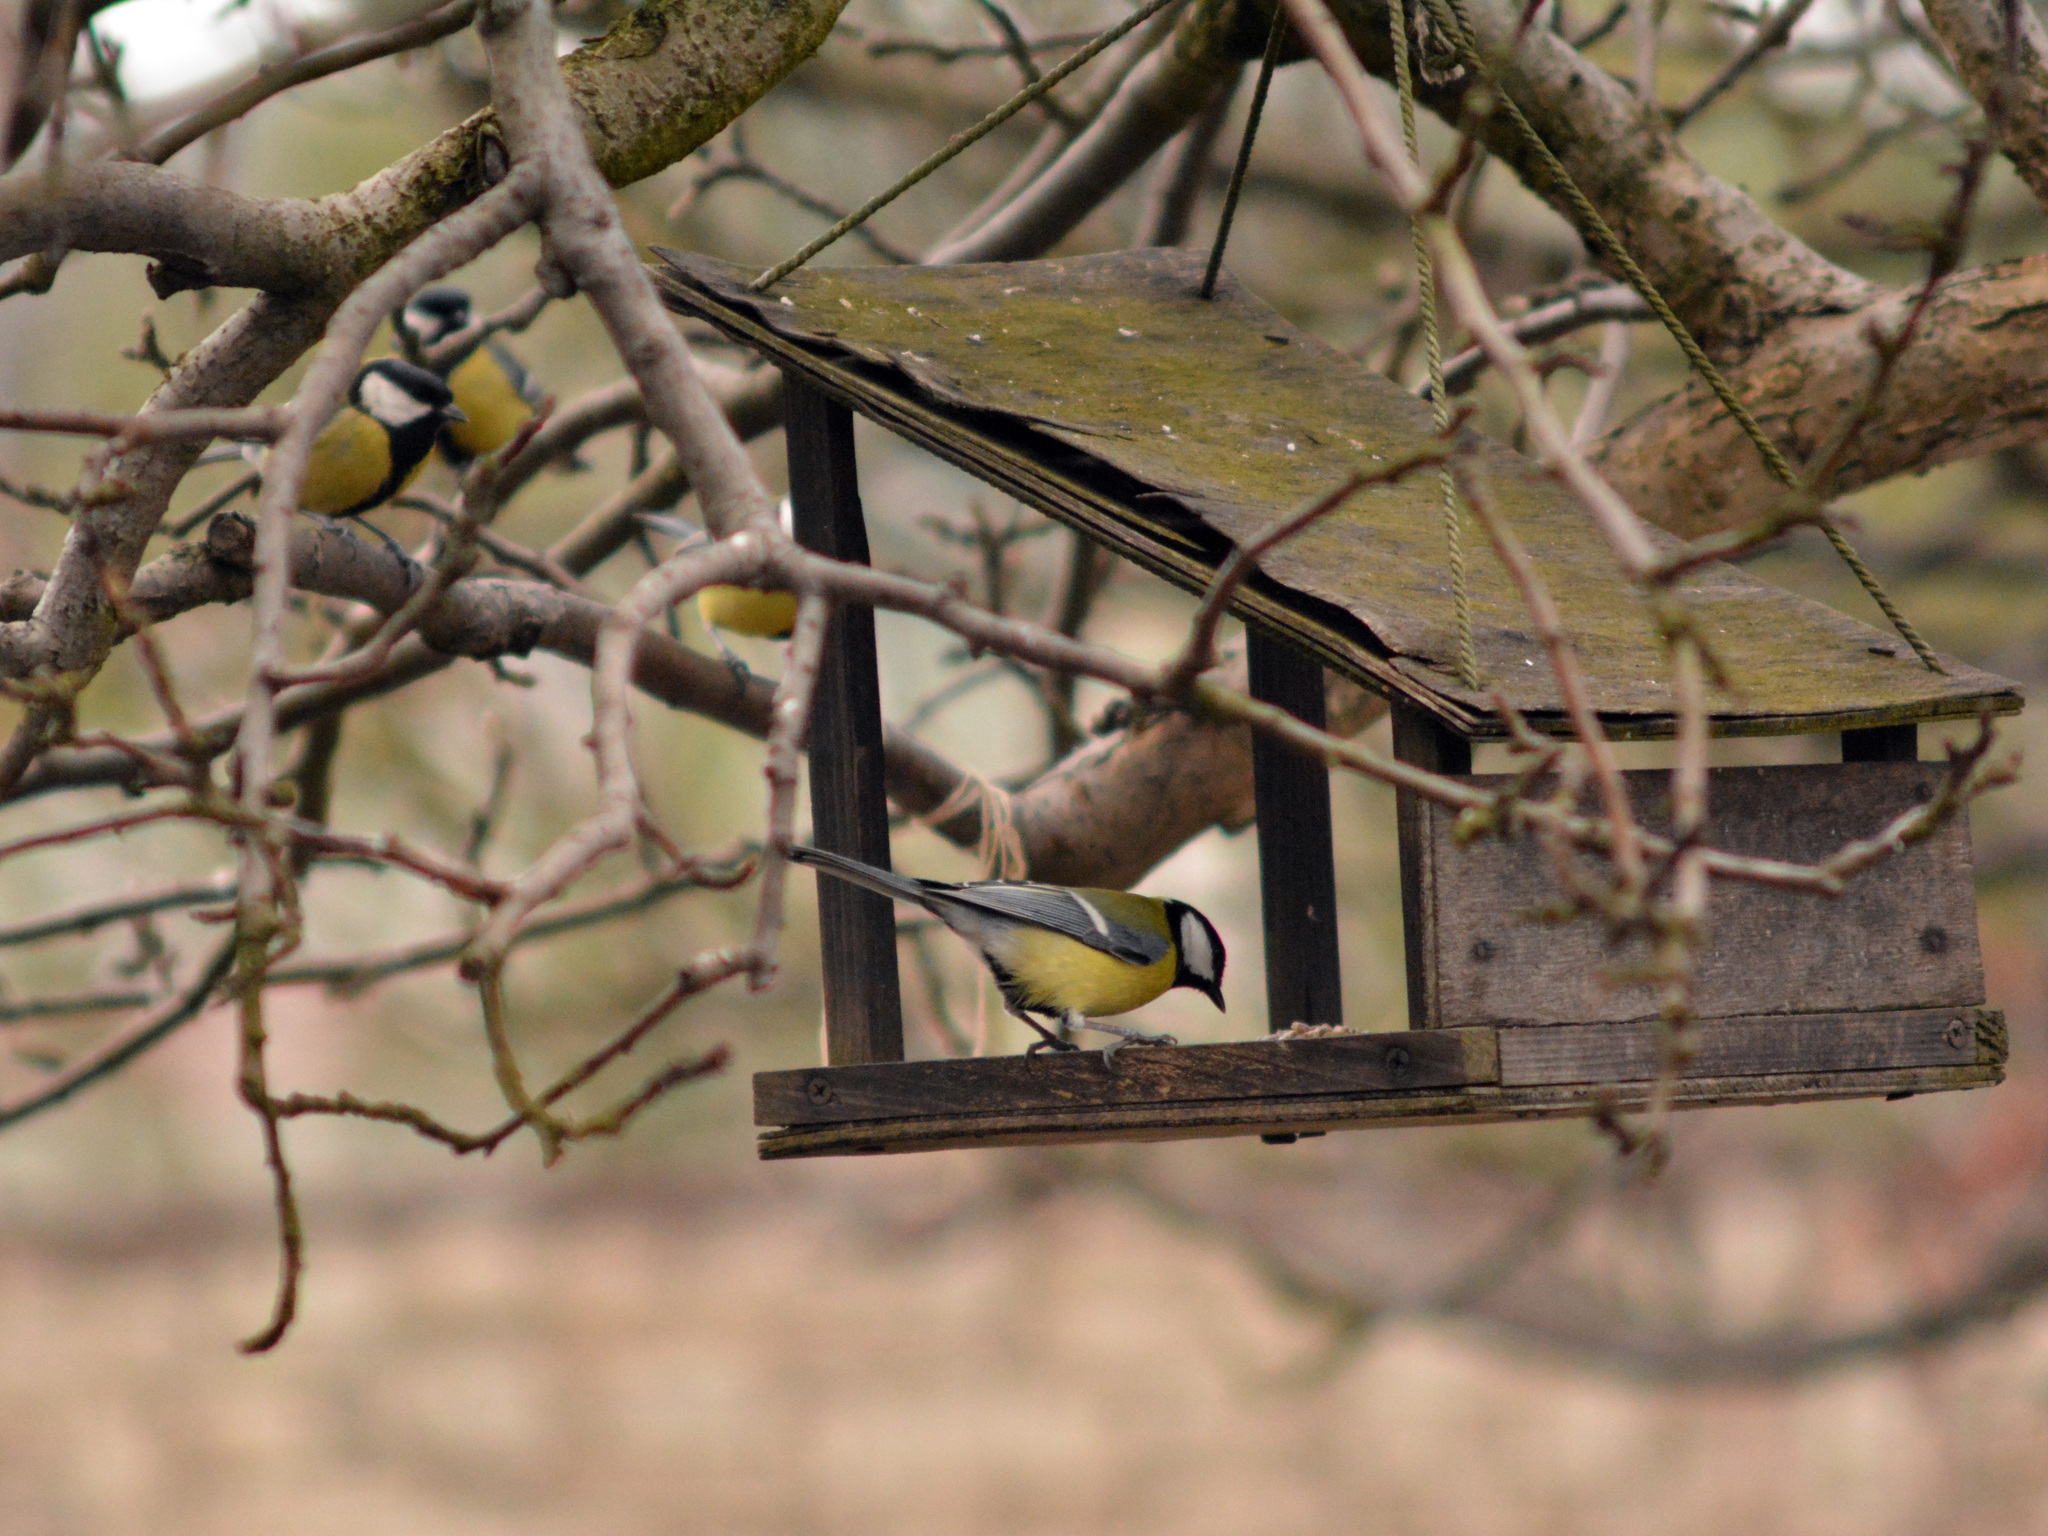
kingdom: Animalia
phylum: Chordata
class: Aves
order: Passeriformes
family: Paridae
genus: Parus
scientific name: Parus major
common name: Great tit
